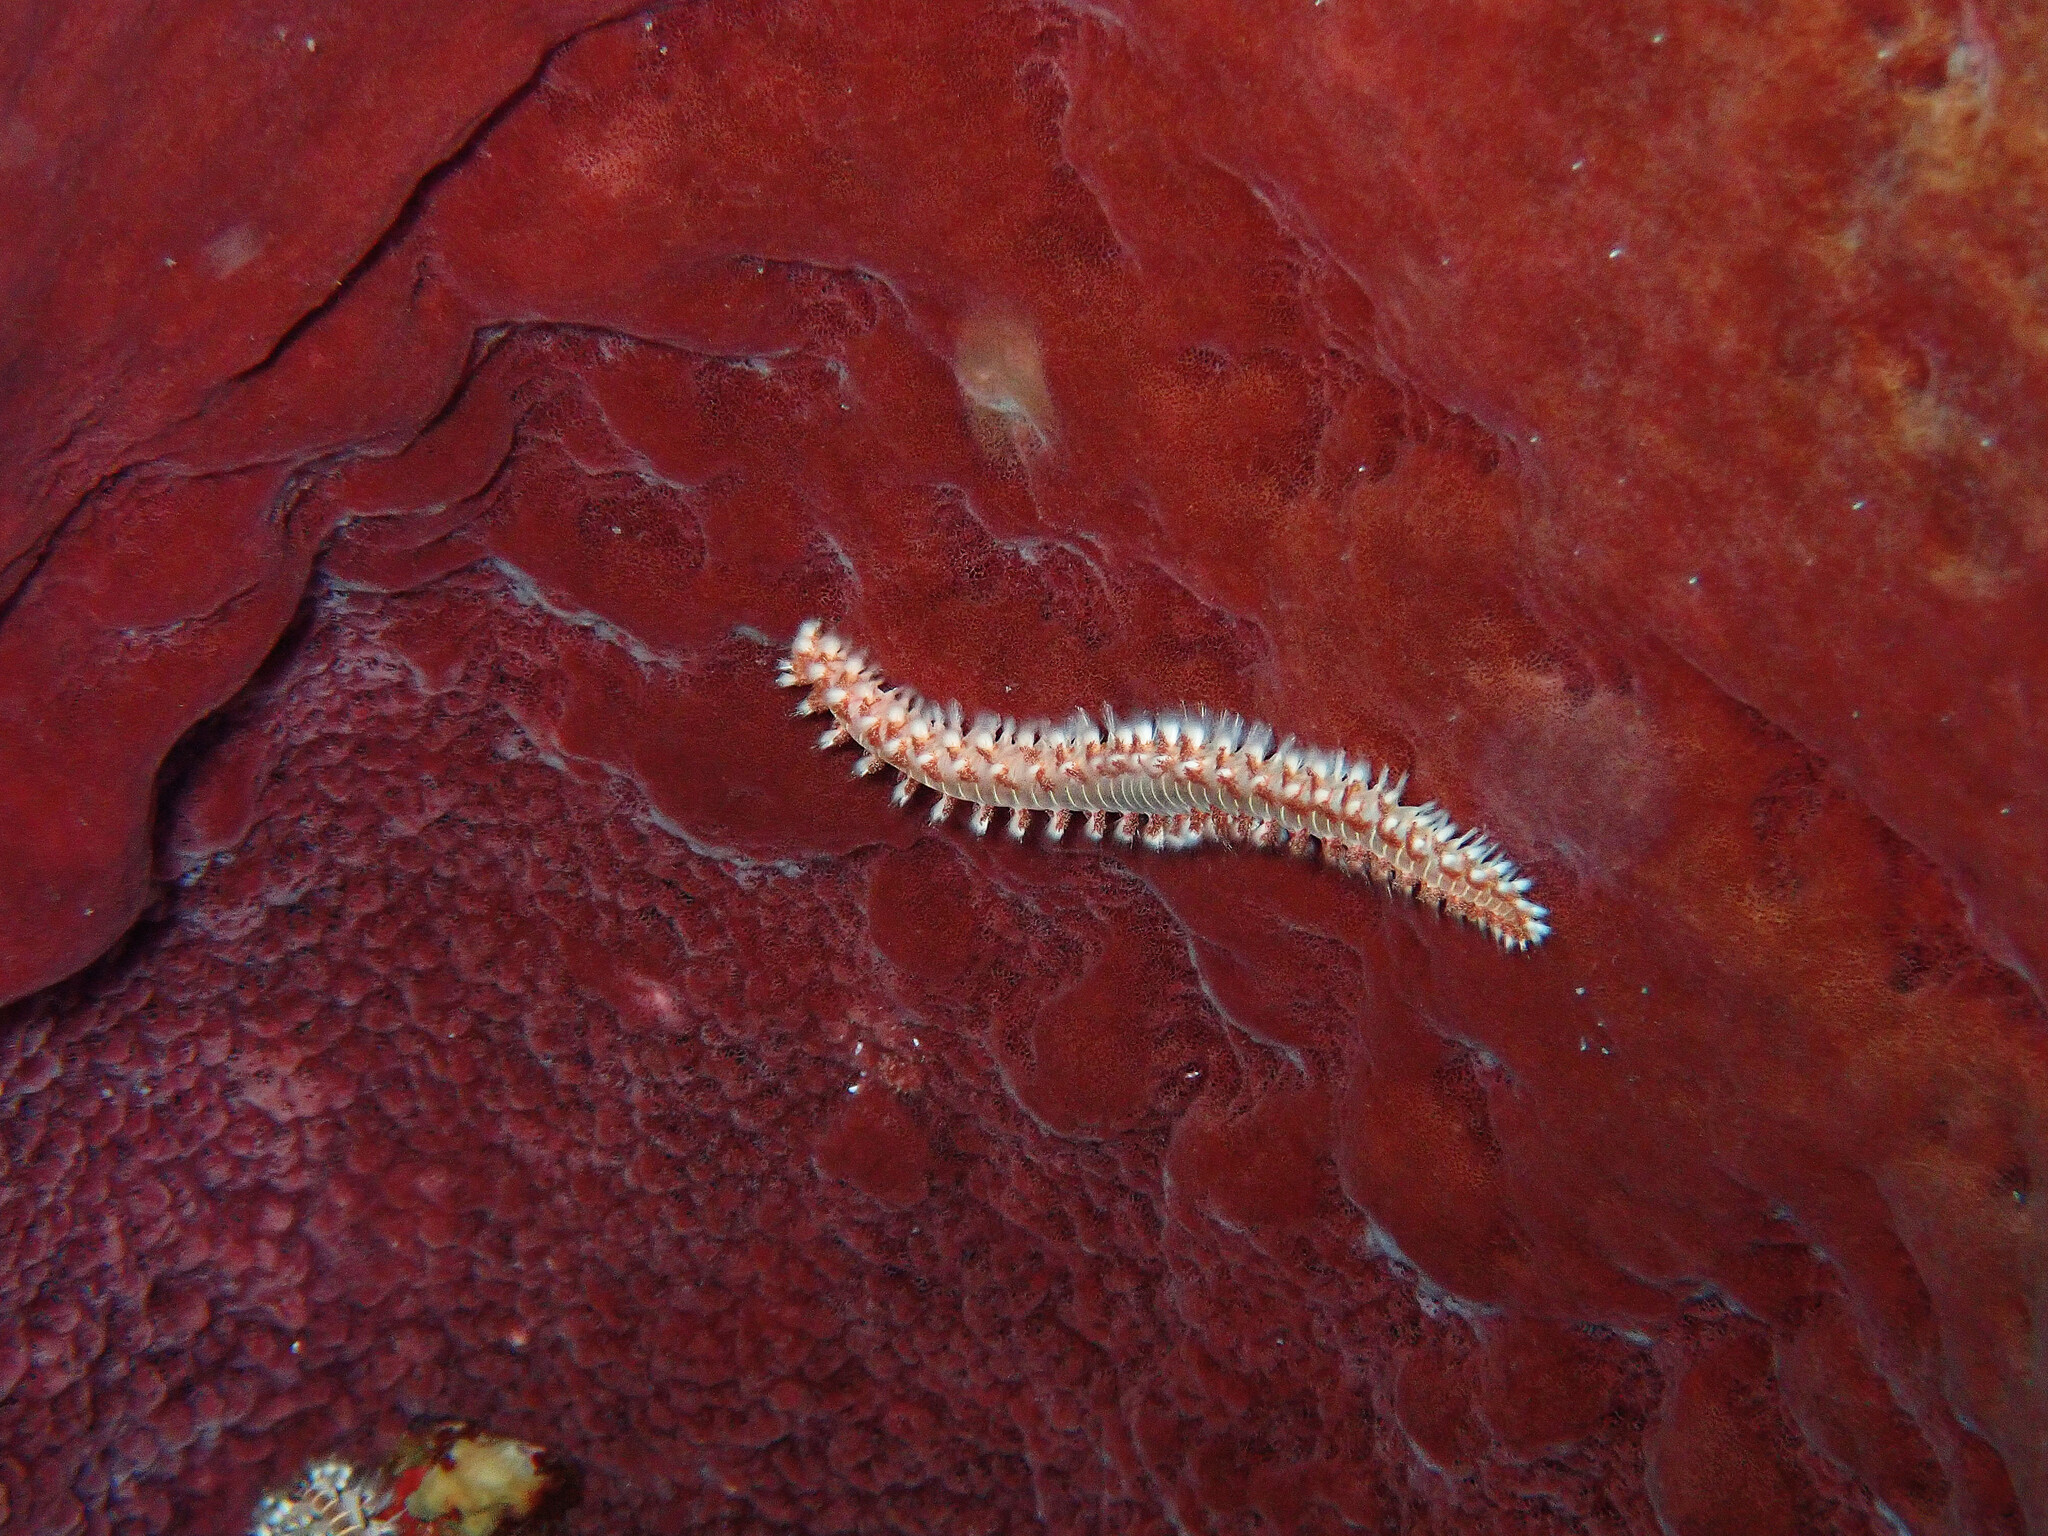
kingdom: Animalia
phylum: Annelida
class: Polychaeta
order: Amphinomida
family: Amphinomidae
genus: Hermodice
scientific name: Hermodice carunculata
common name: Bearded fireworm
